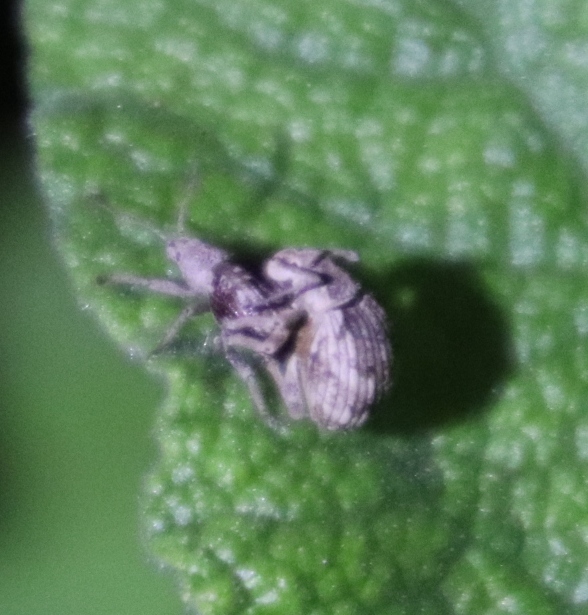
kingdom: Animalia
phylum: Arthropoda
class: Insecta
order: Coleoptera
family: Curculionidae
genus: Ellimenistes
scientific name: Ellimenistes laesicollis
